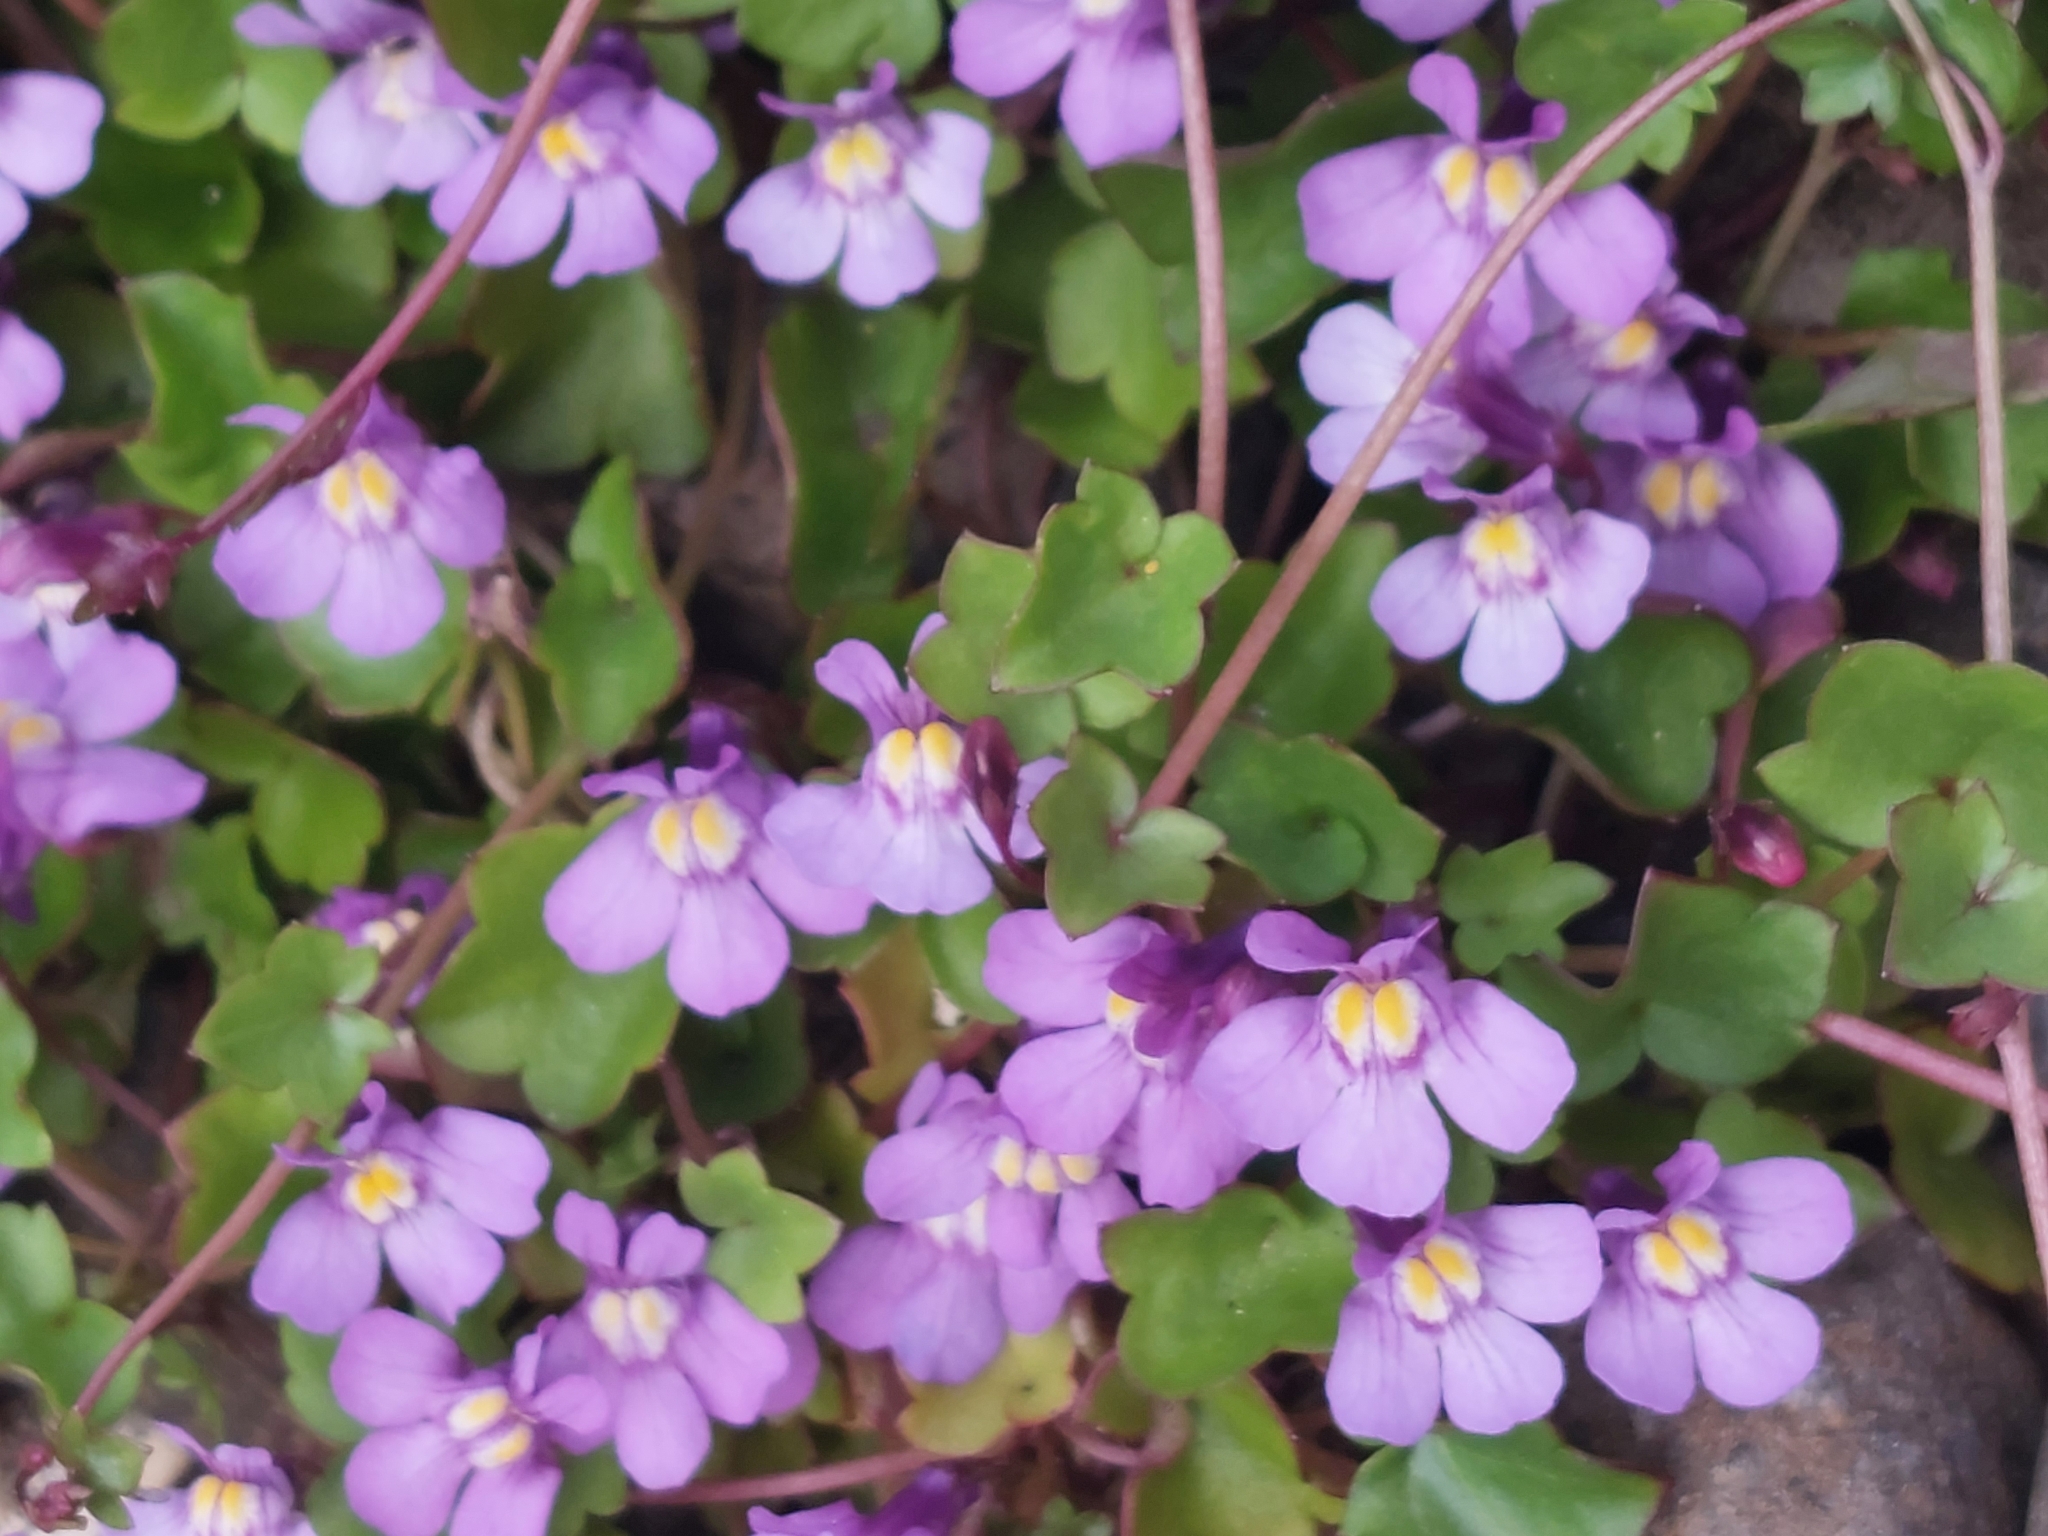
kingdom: Plantae
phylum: Tracheophyta
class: Magnoliopsida
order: Lamiales
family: Plantaginaceae
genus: Cymbalaria
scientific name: Cymbalaria muralis
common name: Ivy-leaved toadflax
